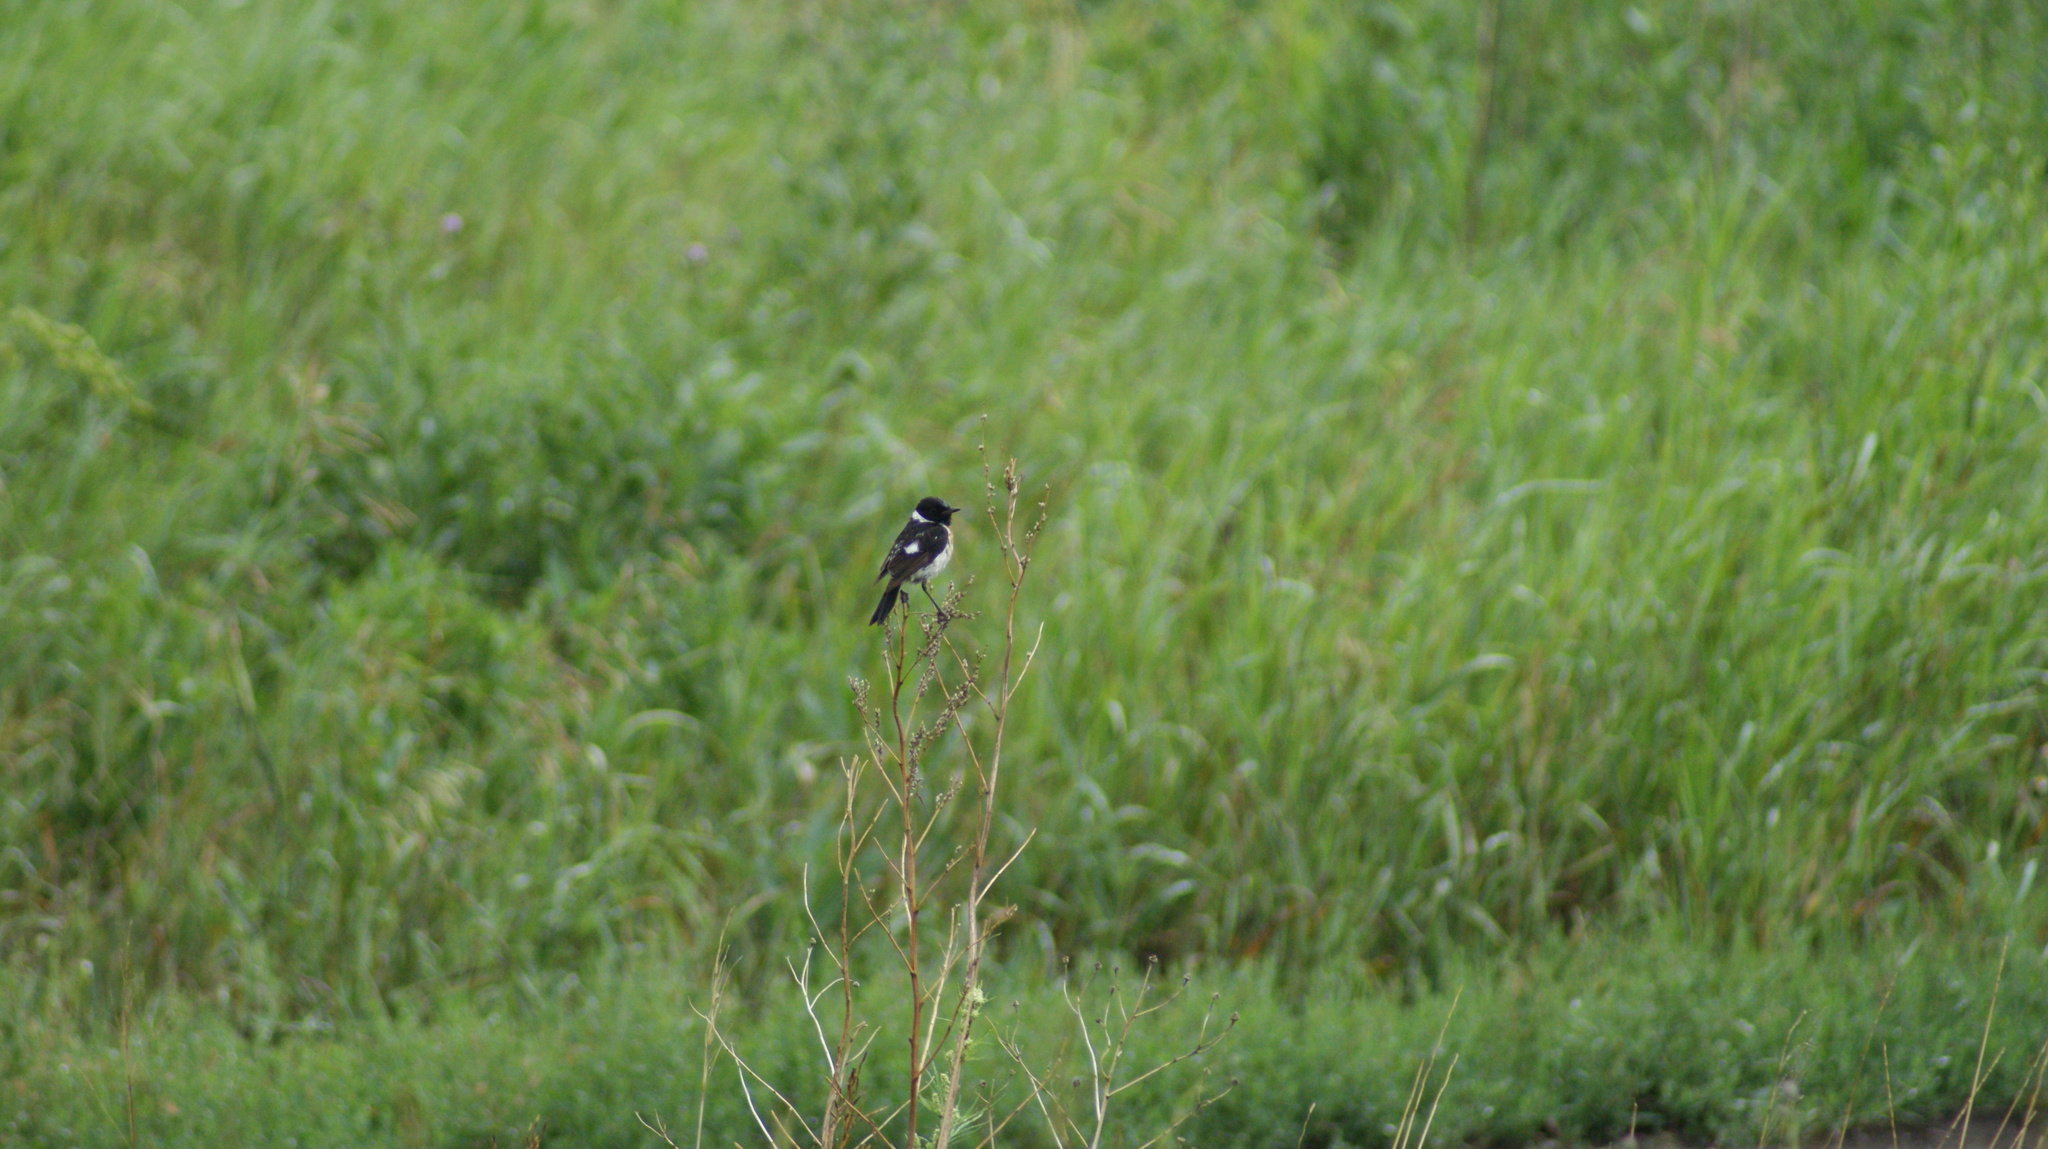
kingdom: Animalia
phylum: Chordata
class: Aves
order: Passeriformes
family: Muscicapidae
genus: Saxicola
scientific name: Saxicola maurus
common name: Siberian stonechat
